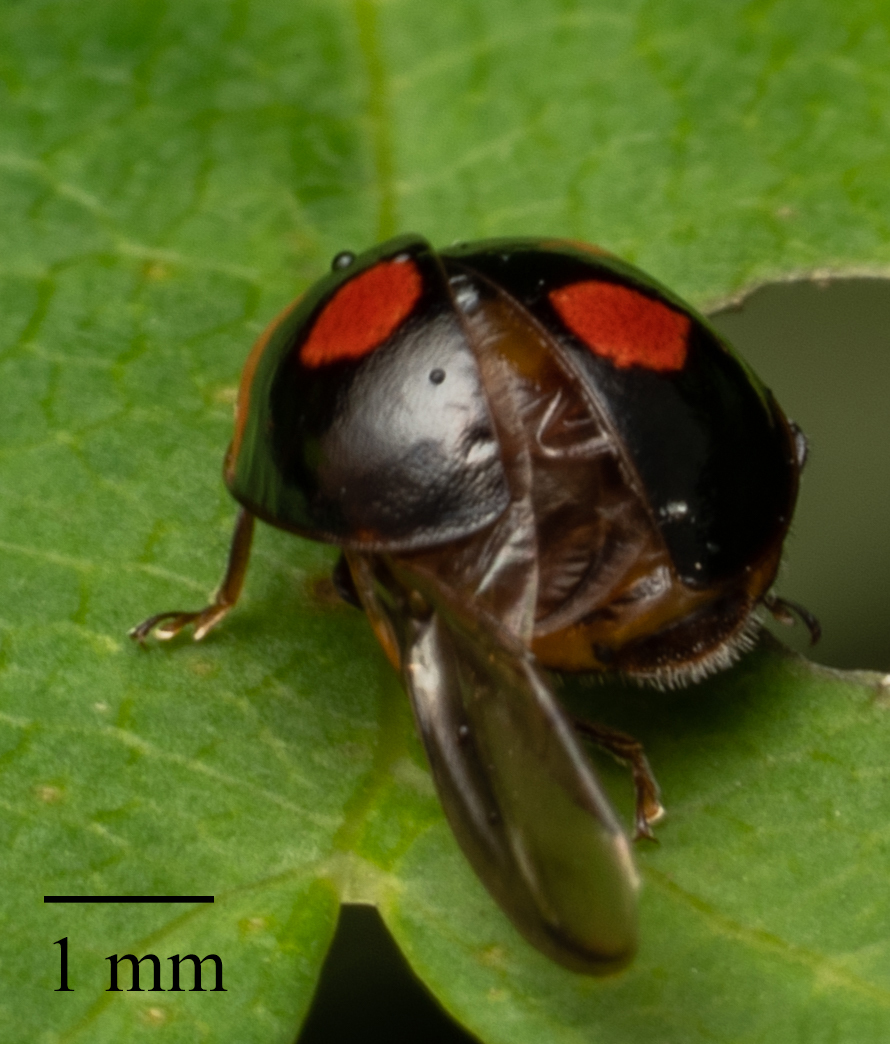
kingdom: Animalia
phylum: Arthropoda
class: Insecta
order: Coleoptera
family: Coccinellidae
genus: Adalia
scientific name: Adalia bipunctata
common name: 2-spot ladybird
